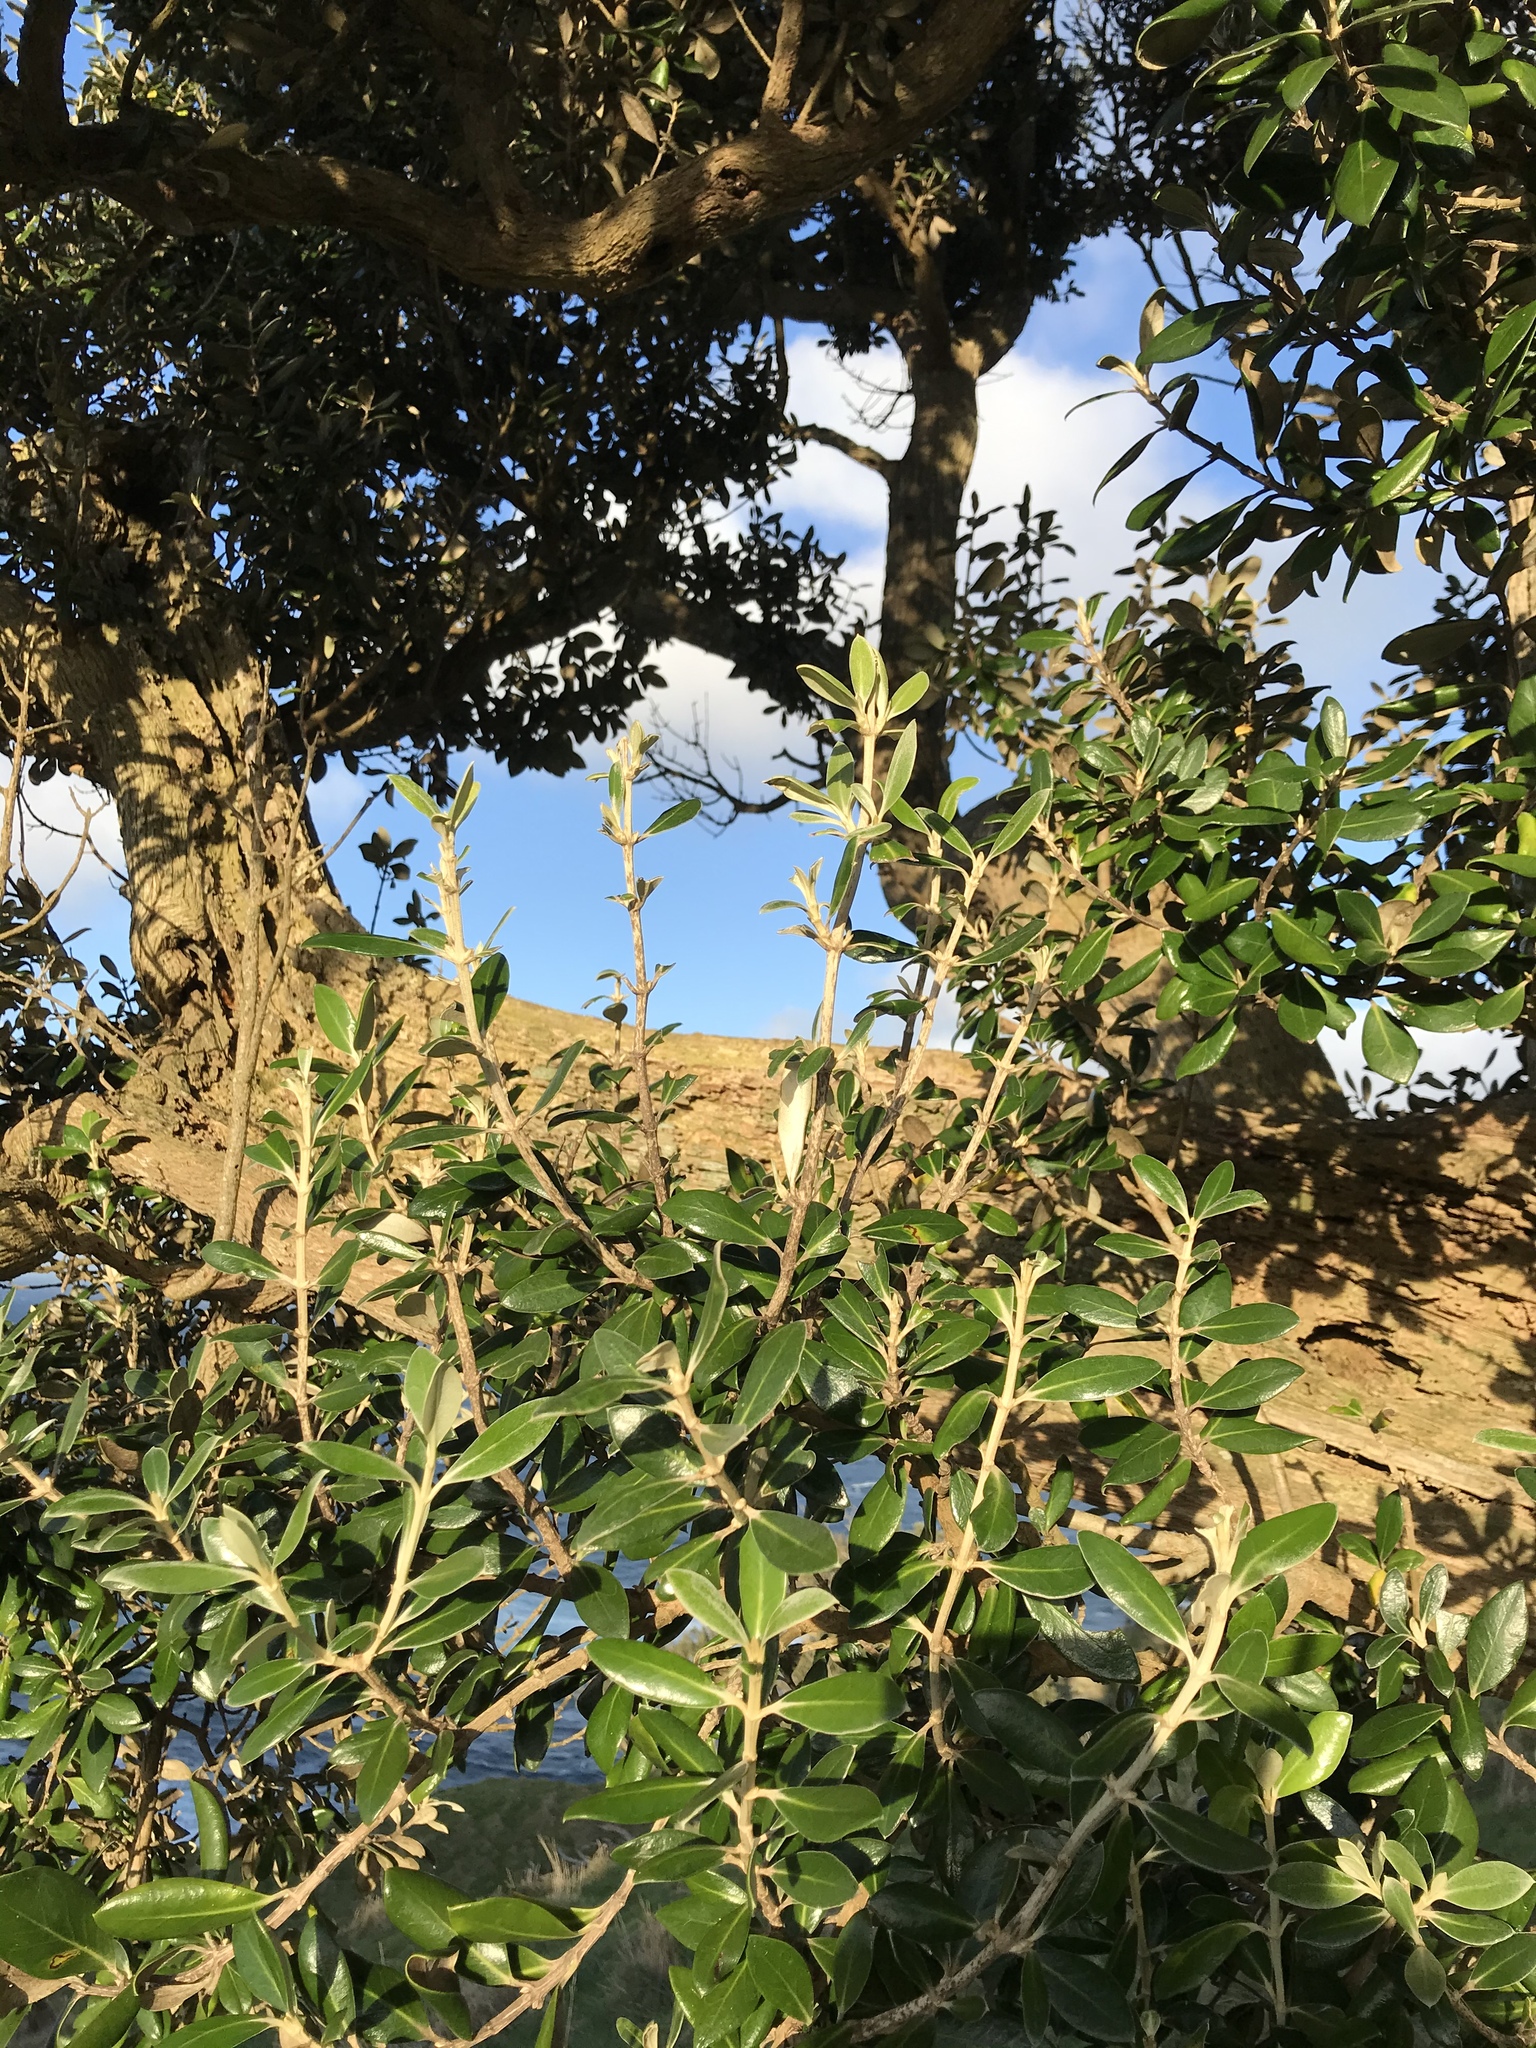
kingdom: Animalia
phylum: Chordata
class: Mammalia
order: Diprotodontia
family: Phalangeridae
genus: Trichosurus
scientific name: Trichosurus vulpecula
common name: Common brushtail
